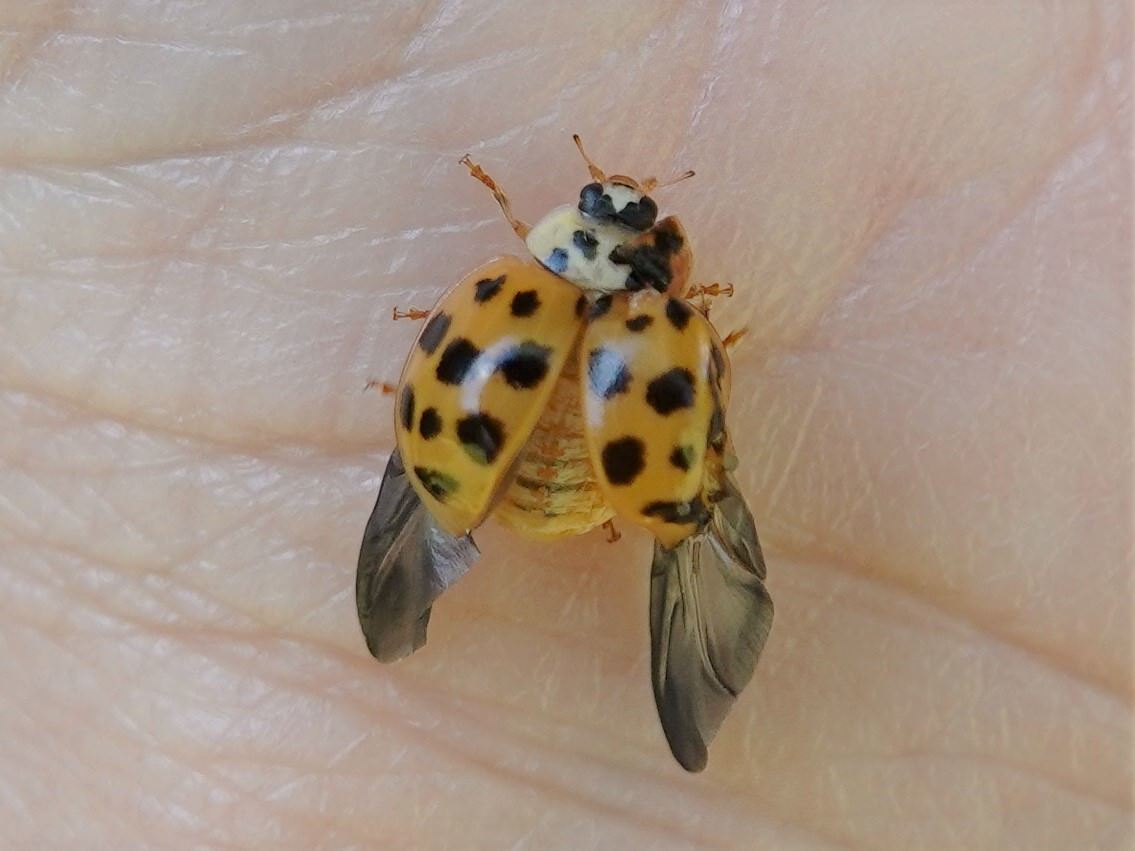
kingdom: Animalia
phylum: Arthropoda
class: Insecta
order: Coleoptera
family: Coccinellidae
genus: Harmonia
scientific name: Harmonia axyridis
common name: Harlequin ladybird
